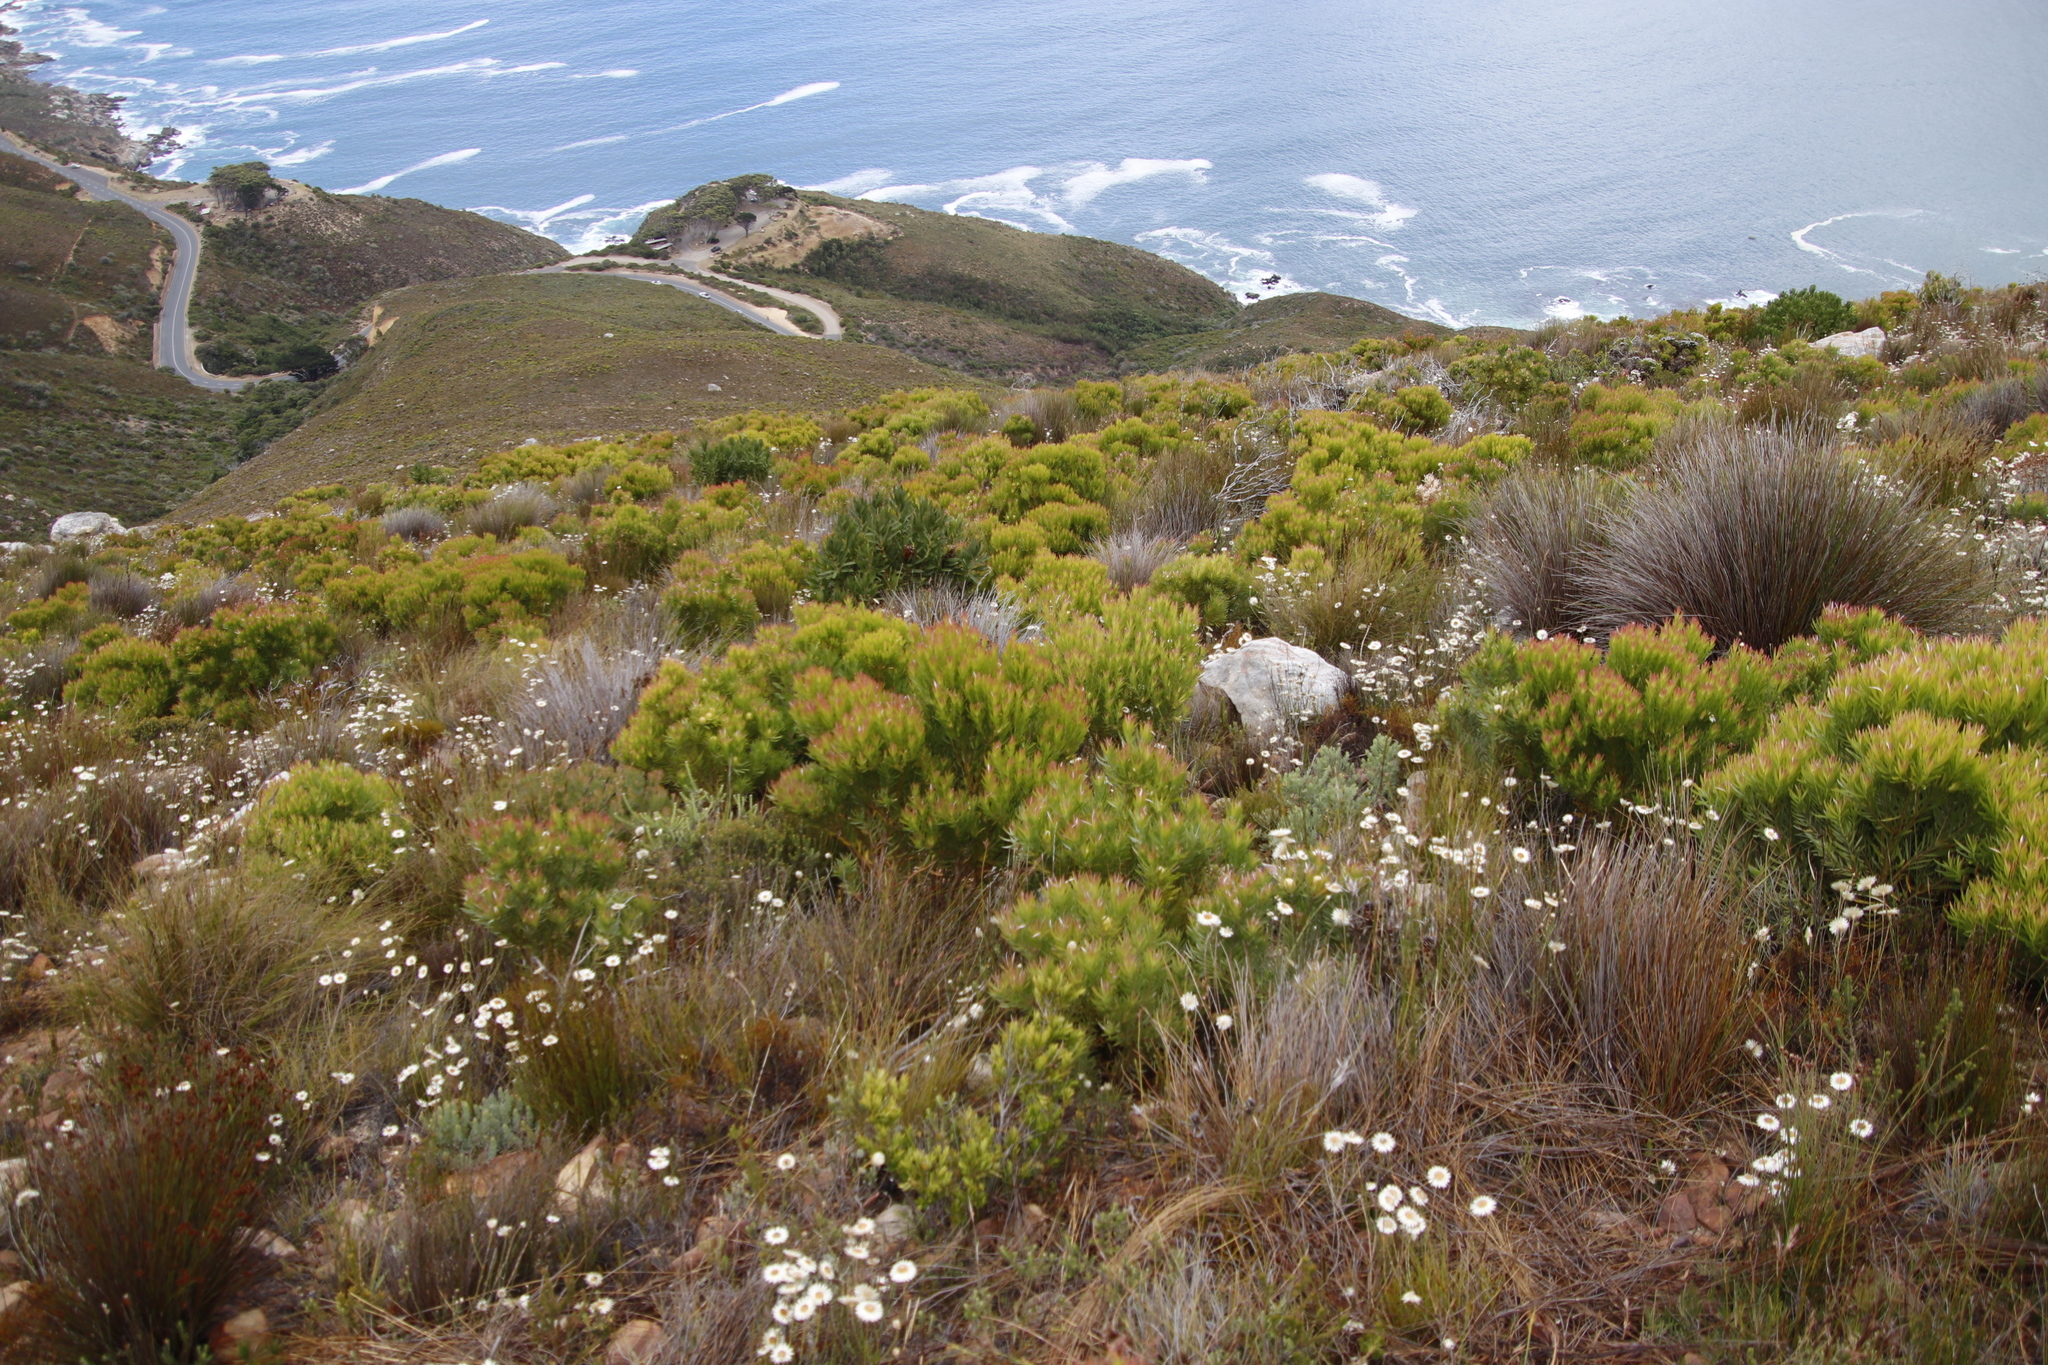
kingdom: Plantae
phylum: Tracheophyta
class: Magnoliopsida
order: Proteales
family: Proteaceae
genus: Leucadendron
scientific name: Leucadendron xanthoconus
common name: Sickle-leaf conebush
